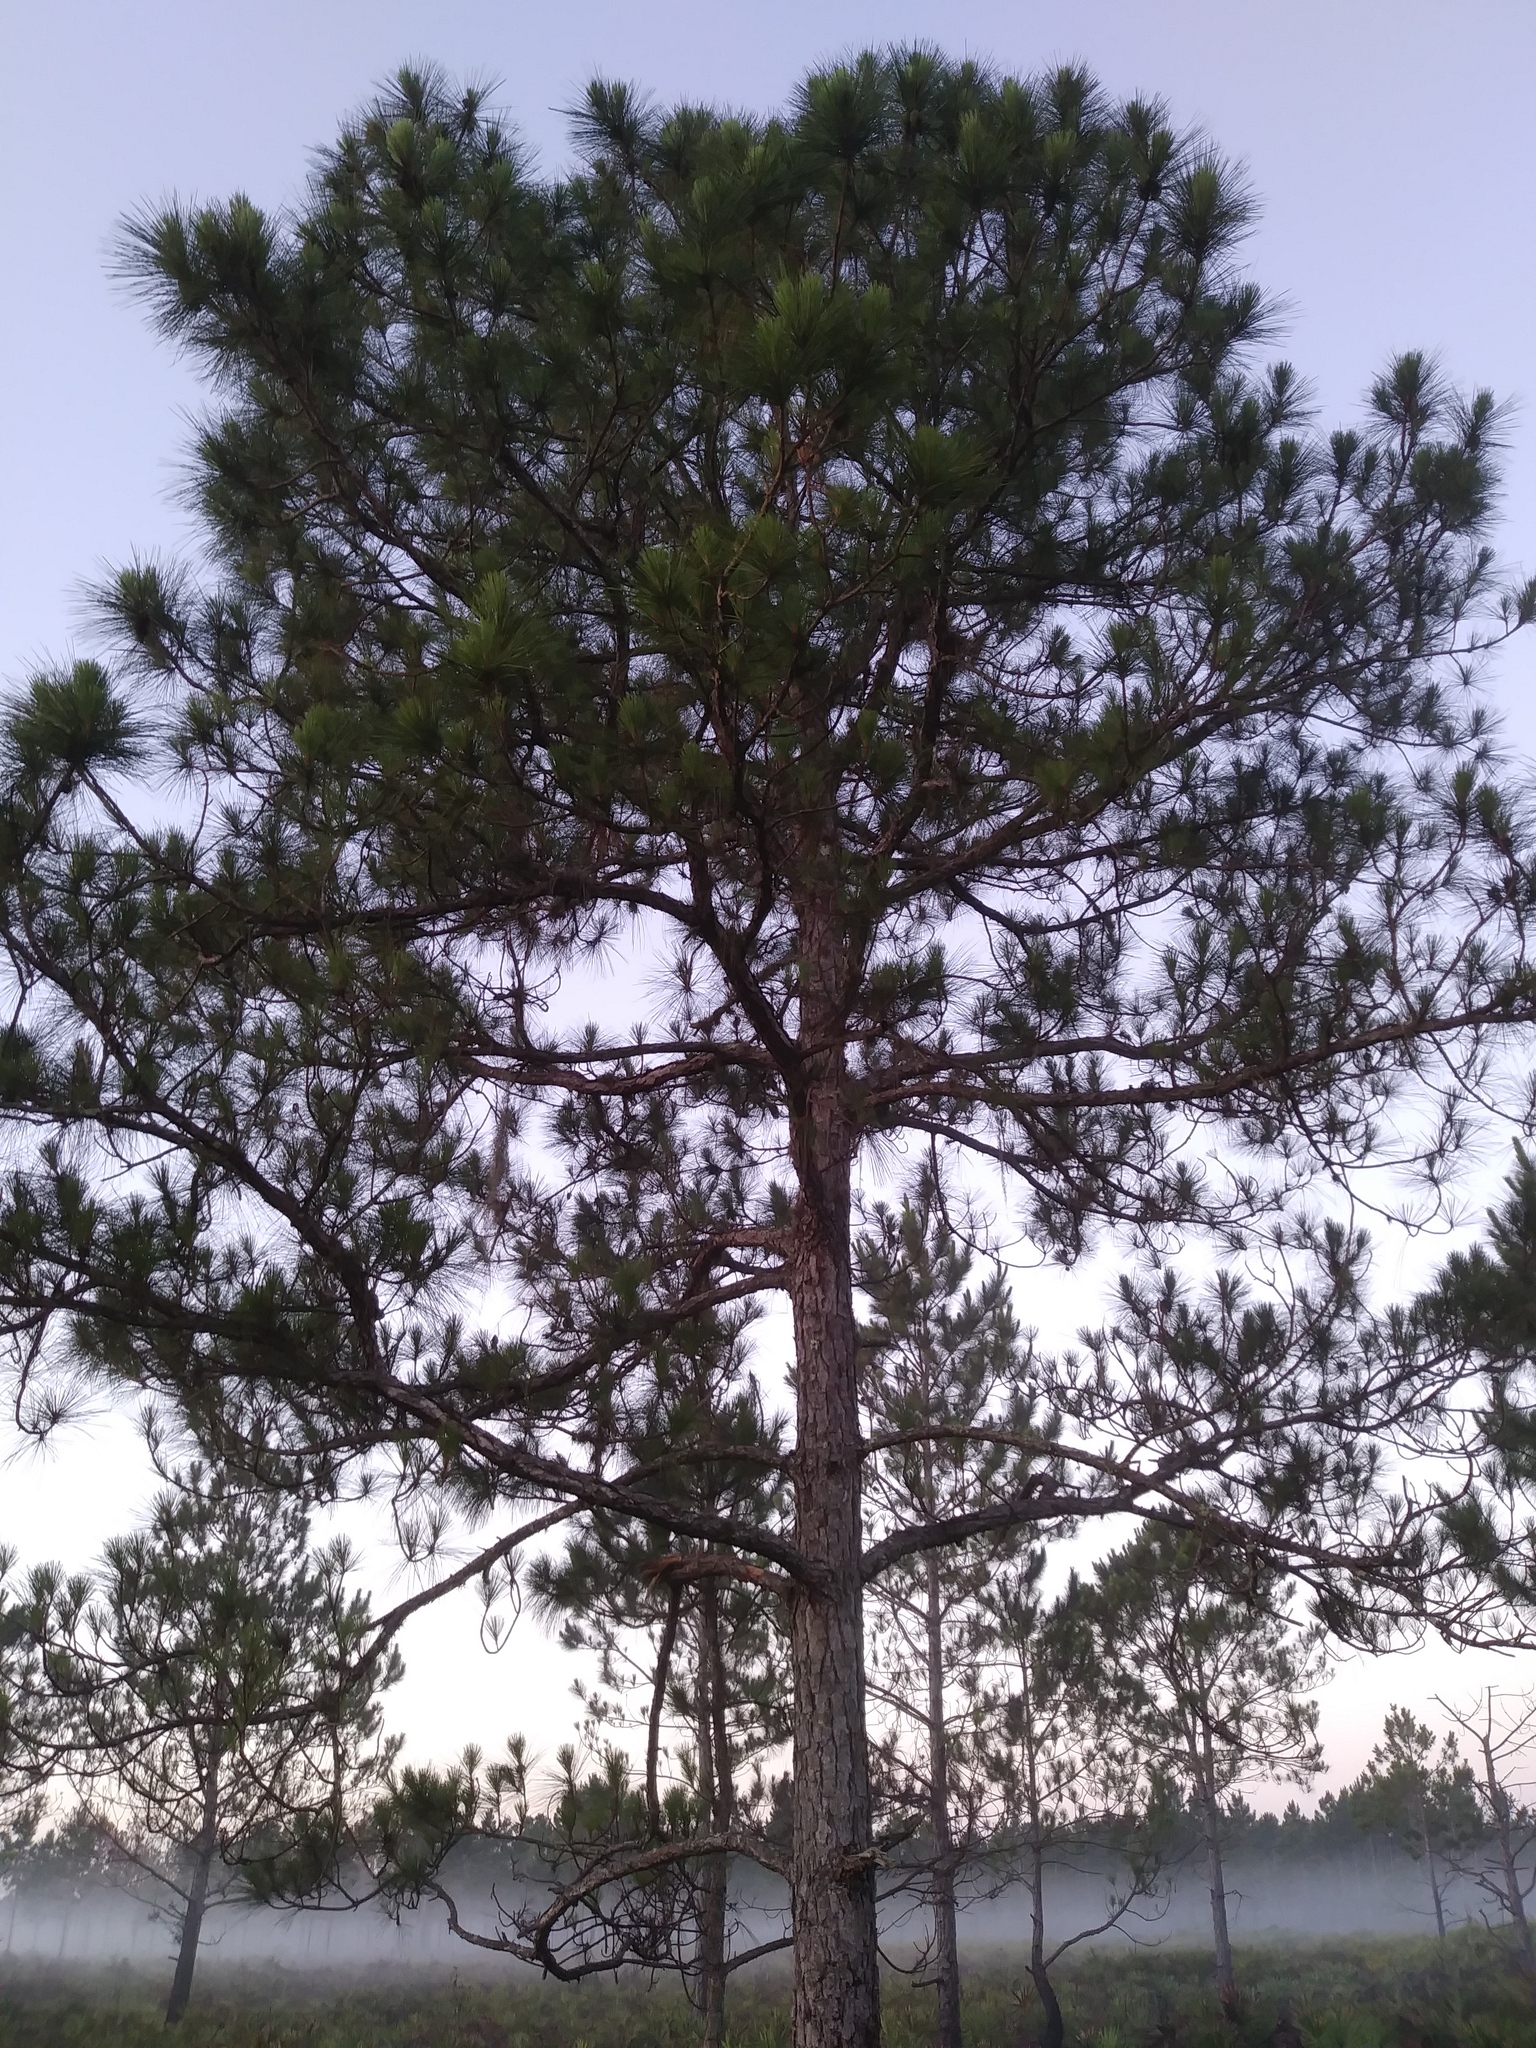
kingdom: Plantae
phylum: Tracheophyta
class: Pinopsida
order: Pinales
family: Pinaceae
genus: Pinus
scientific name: Pinus elliottii
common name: Slash pine
